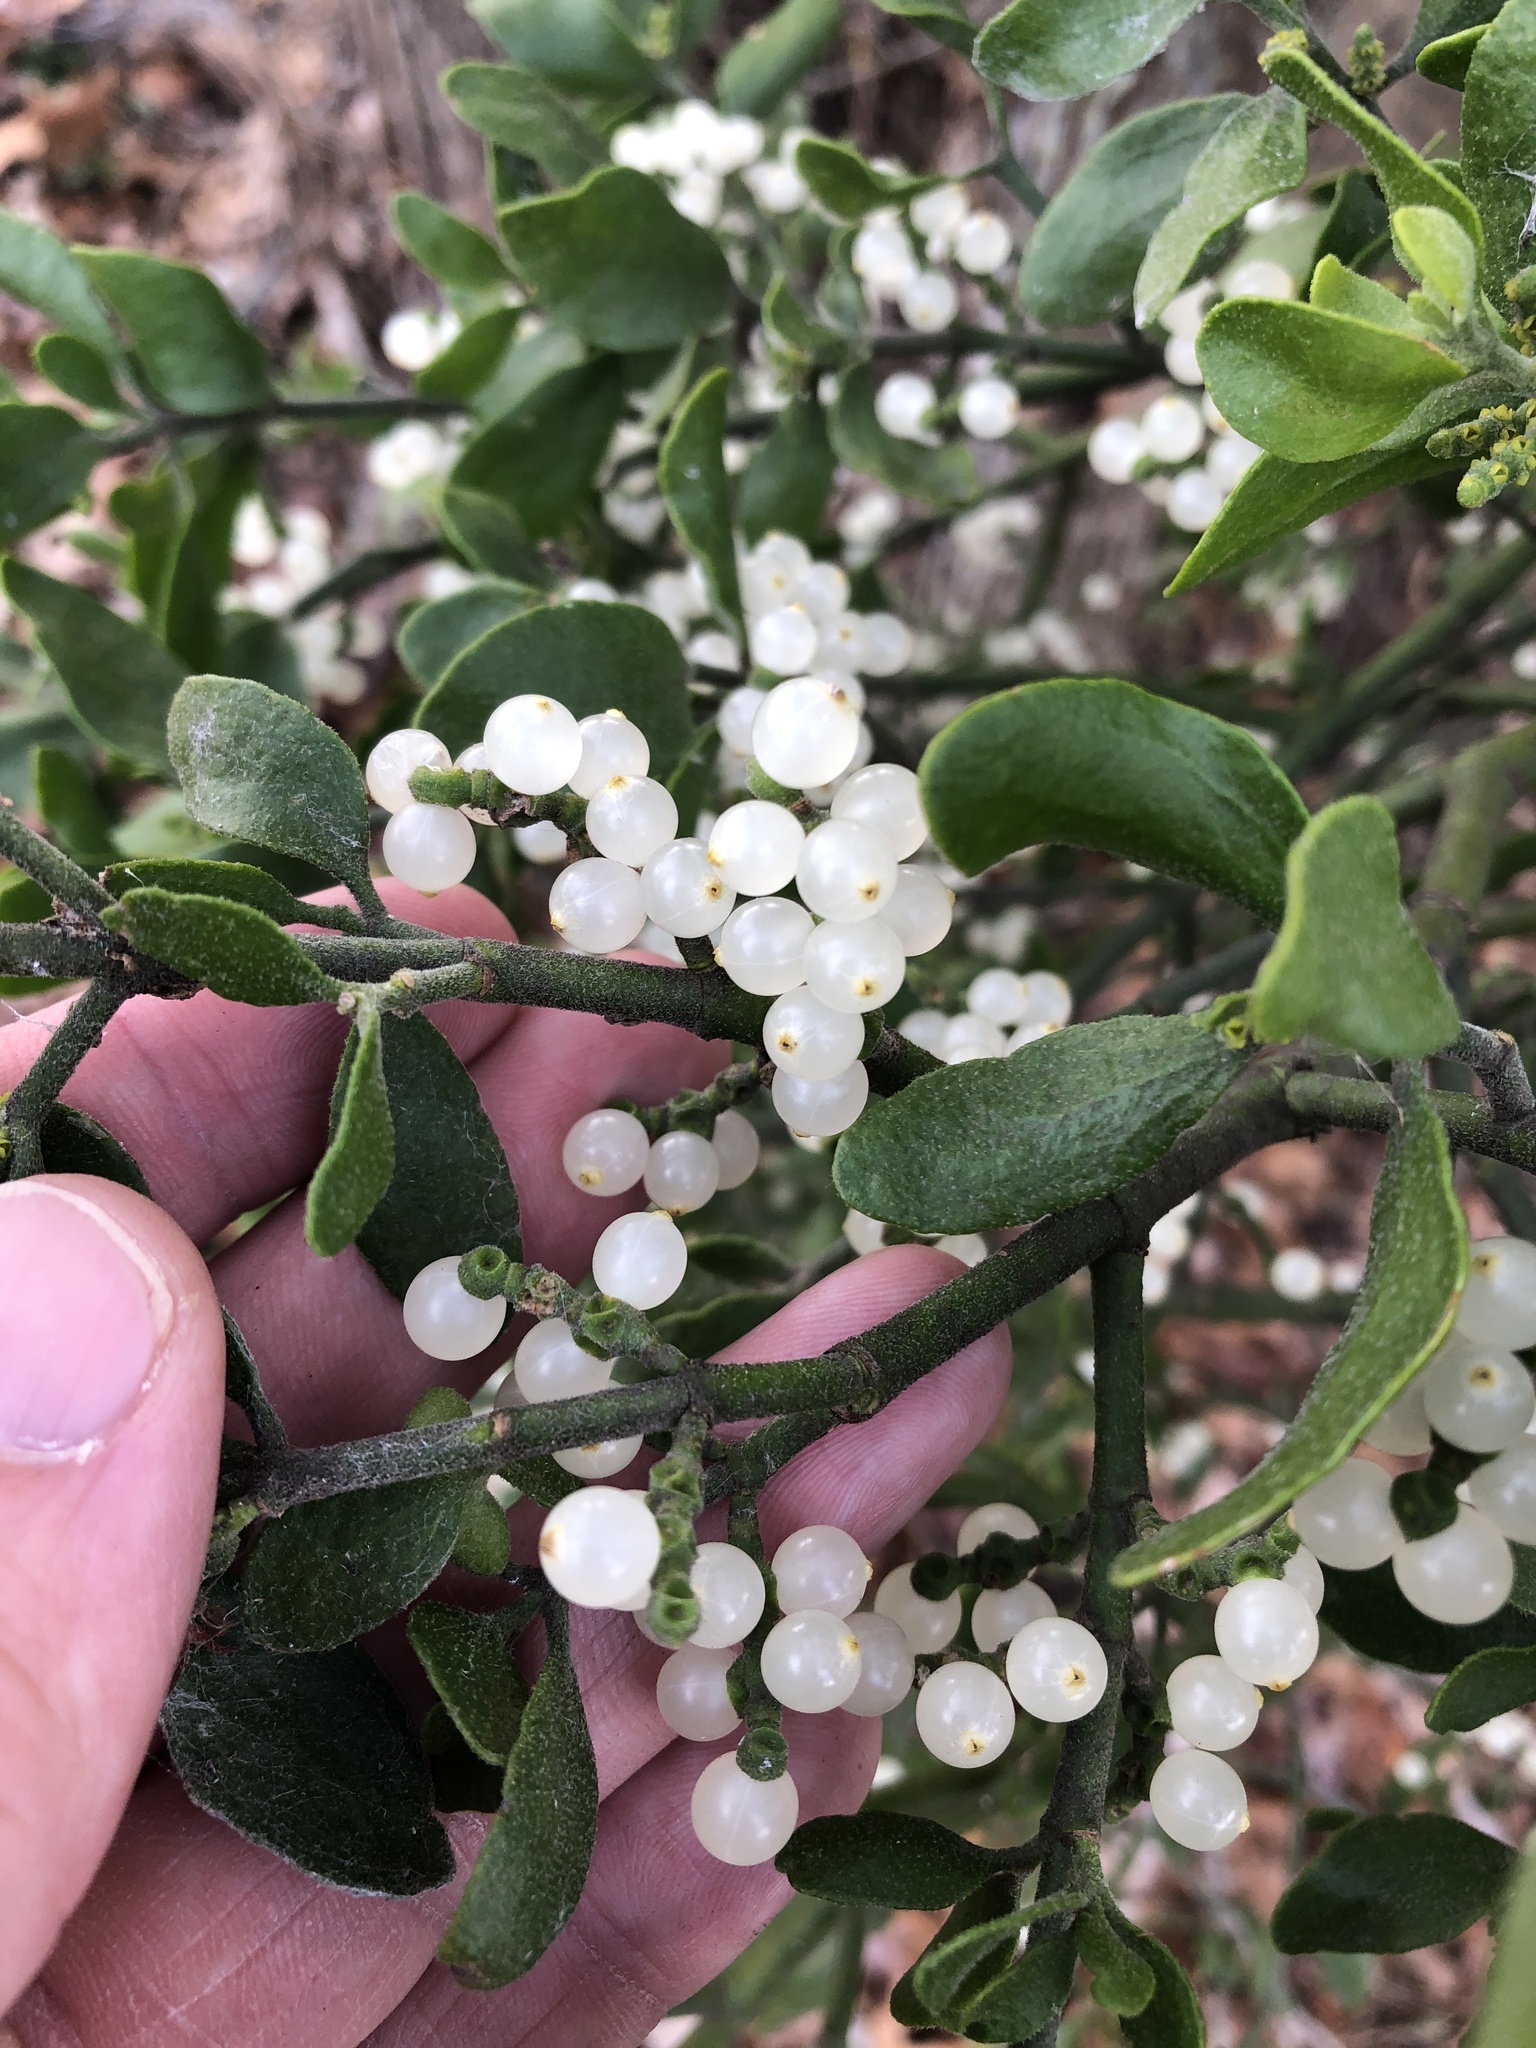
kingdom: Plantae
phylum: Tracheophyta
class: Magnoliopsida
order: Santalales
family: Viscaceae
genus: Phoradendron
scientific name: Phoradendron leucarpum
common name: Pacific mistletoe
